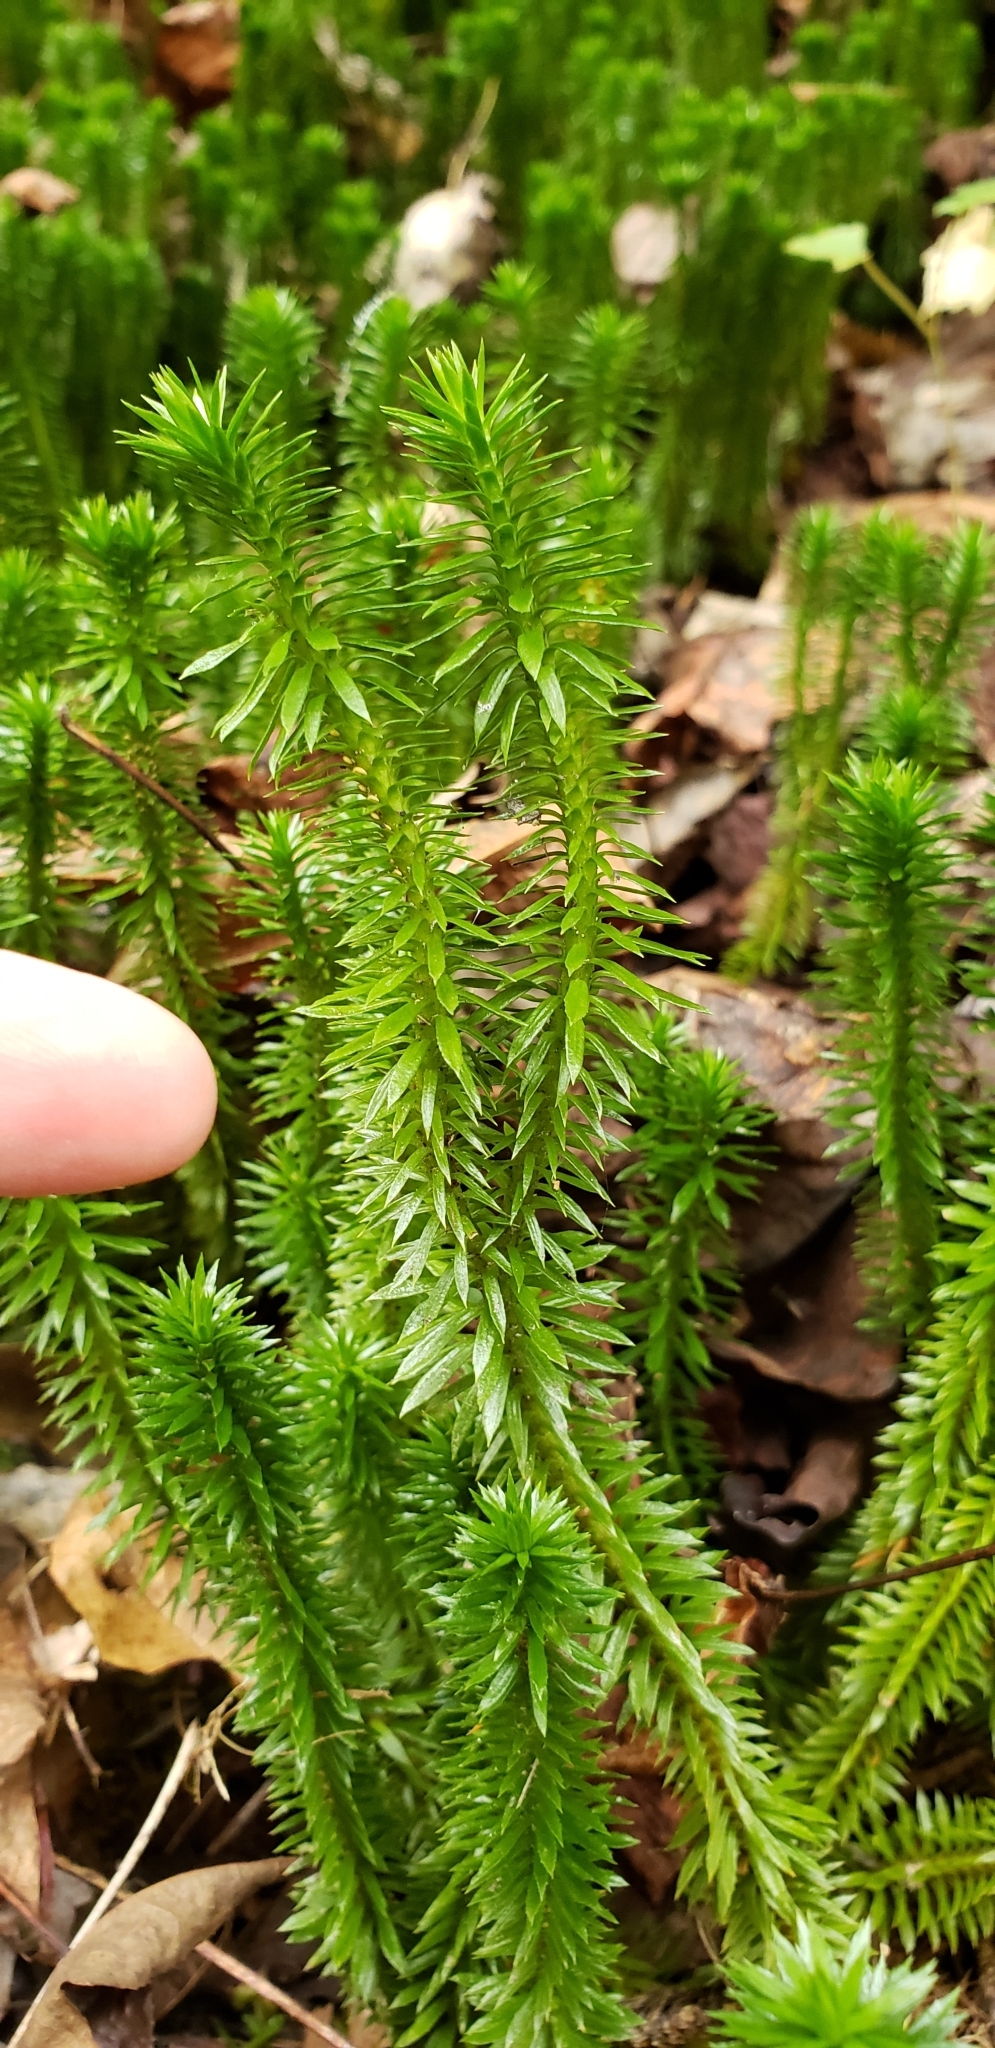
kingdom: Plantae
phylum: Tracheophyta
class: Lycopodiopsida
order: Lycopodiales
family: Lycopodiaceae
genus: Huperzia
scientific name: Huperzia lucidula
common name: Shining clubmoss
